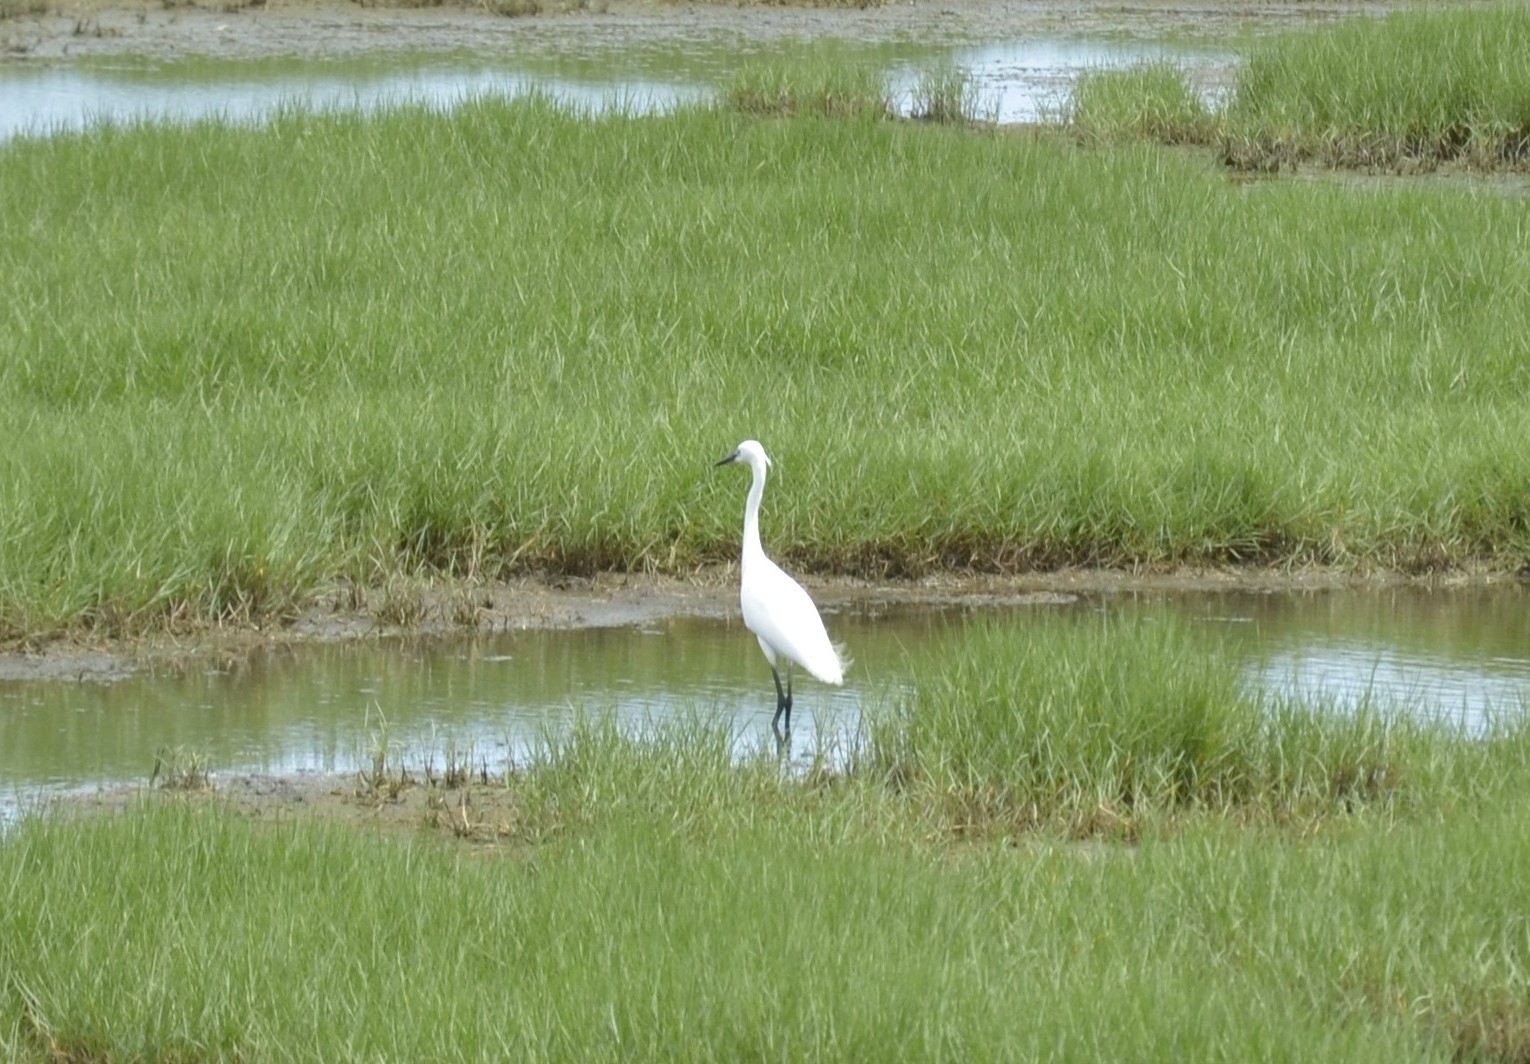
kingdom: Animalia
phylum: Chordata
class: Aves
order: Pelecaniformes
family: Ardeidae
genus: Egretta
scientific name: Egretta garzetta
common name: Little egret
